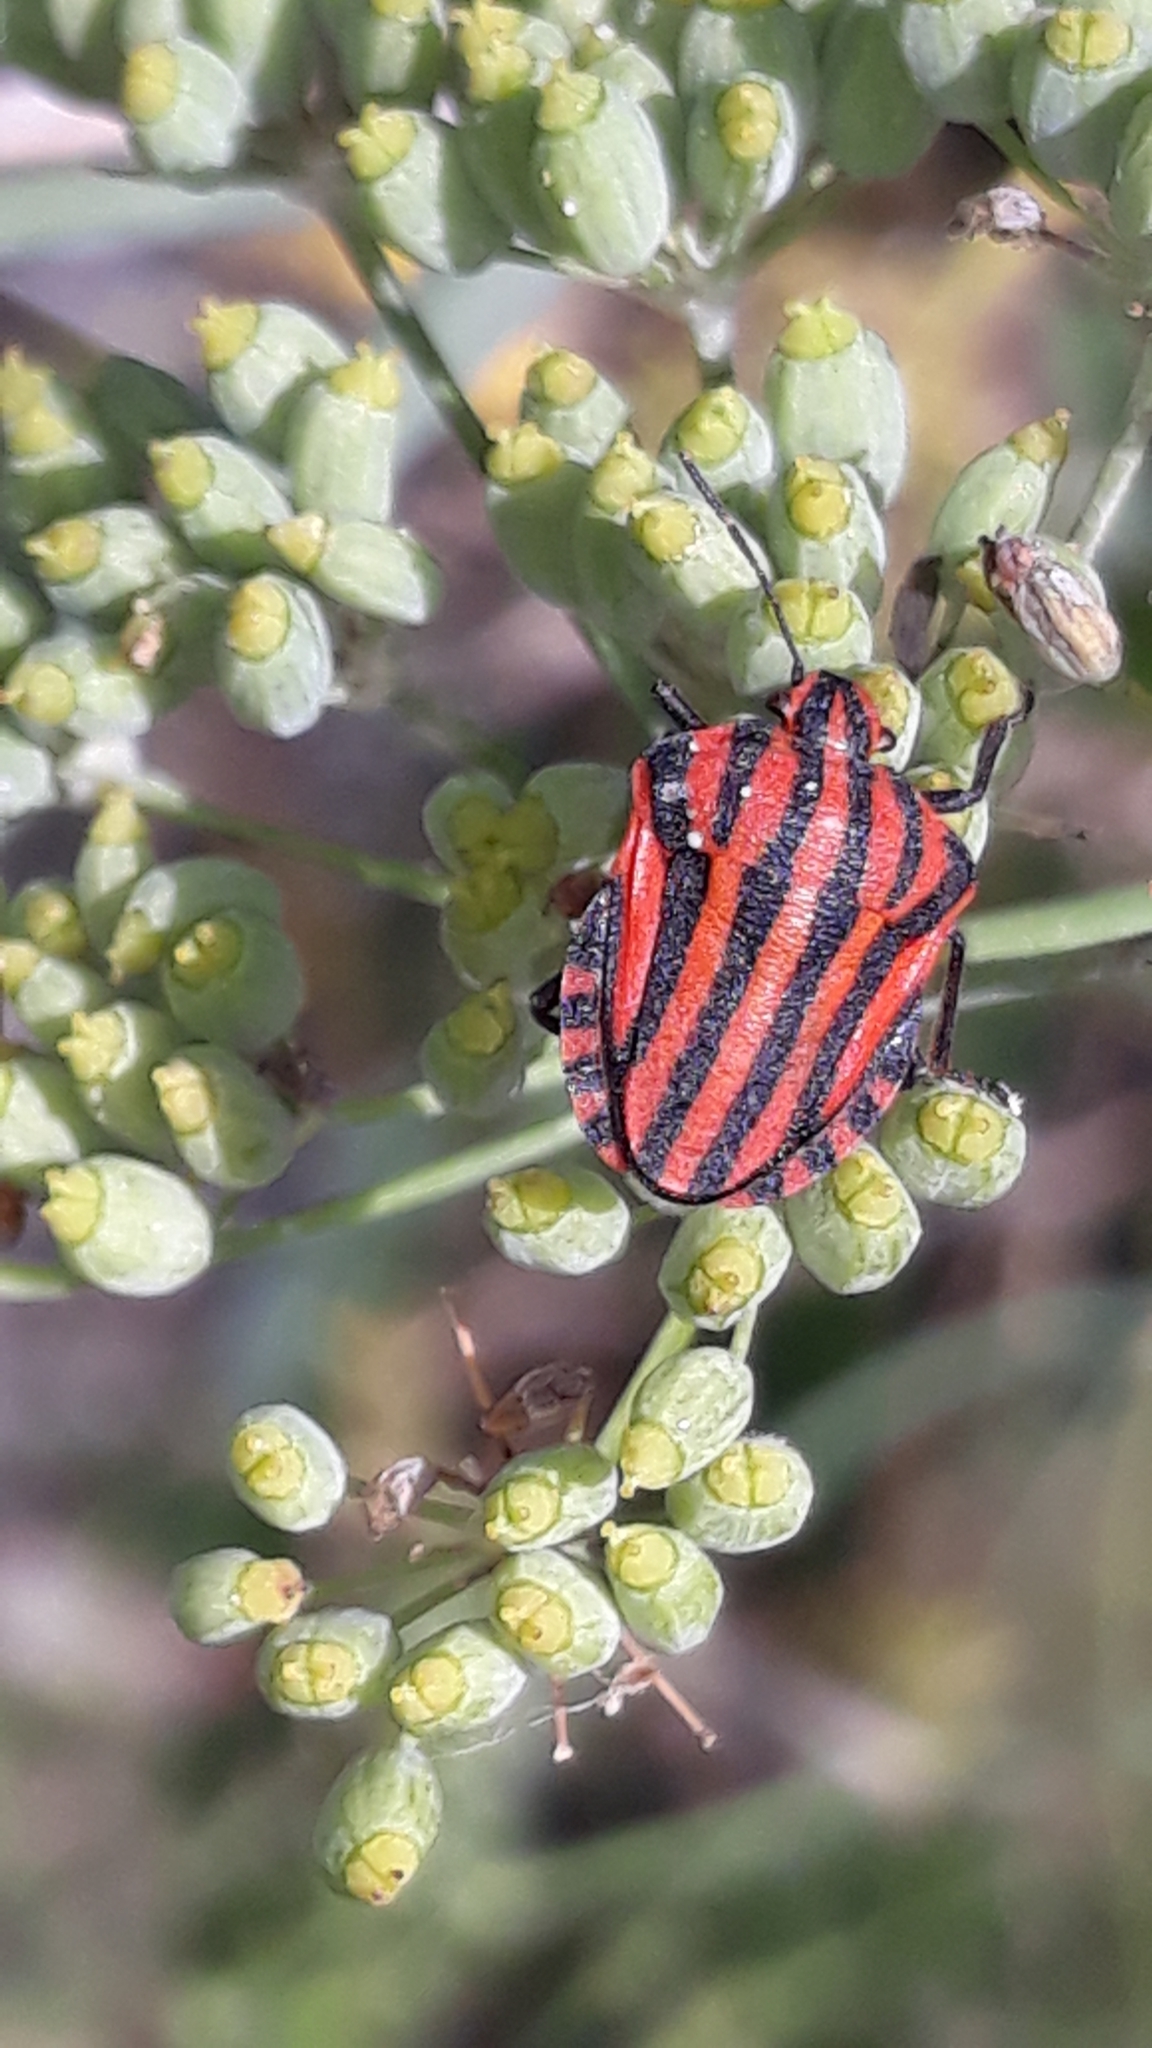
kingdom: Animalia
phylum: Arthropoda
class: Insecta
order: Hemiptera
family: Pentatomidae
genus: Graphosoma
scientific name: Graphosoma italicum
